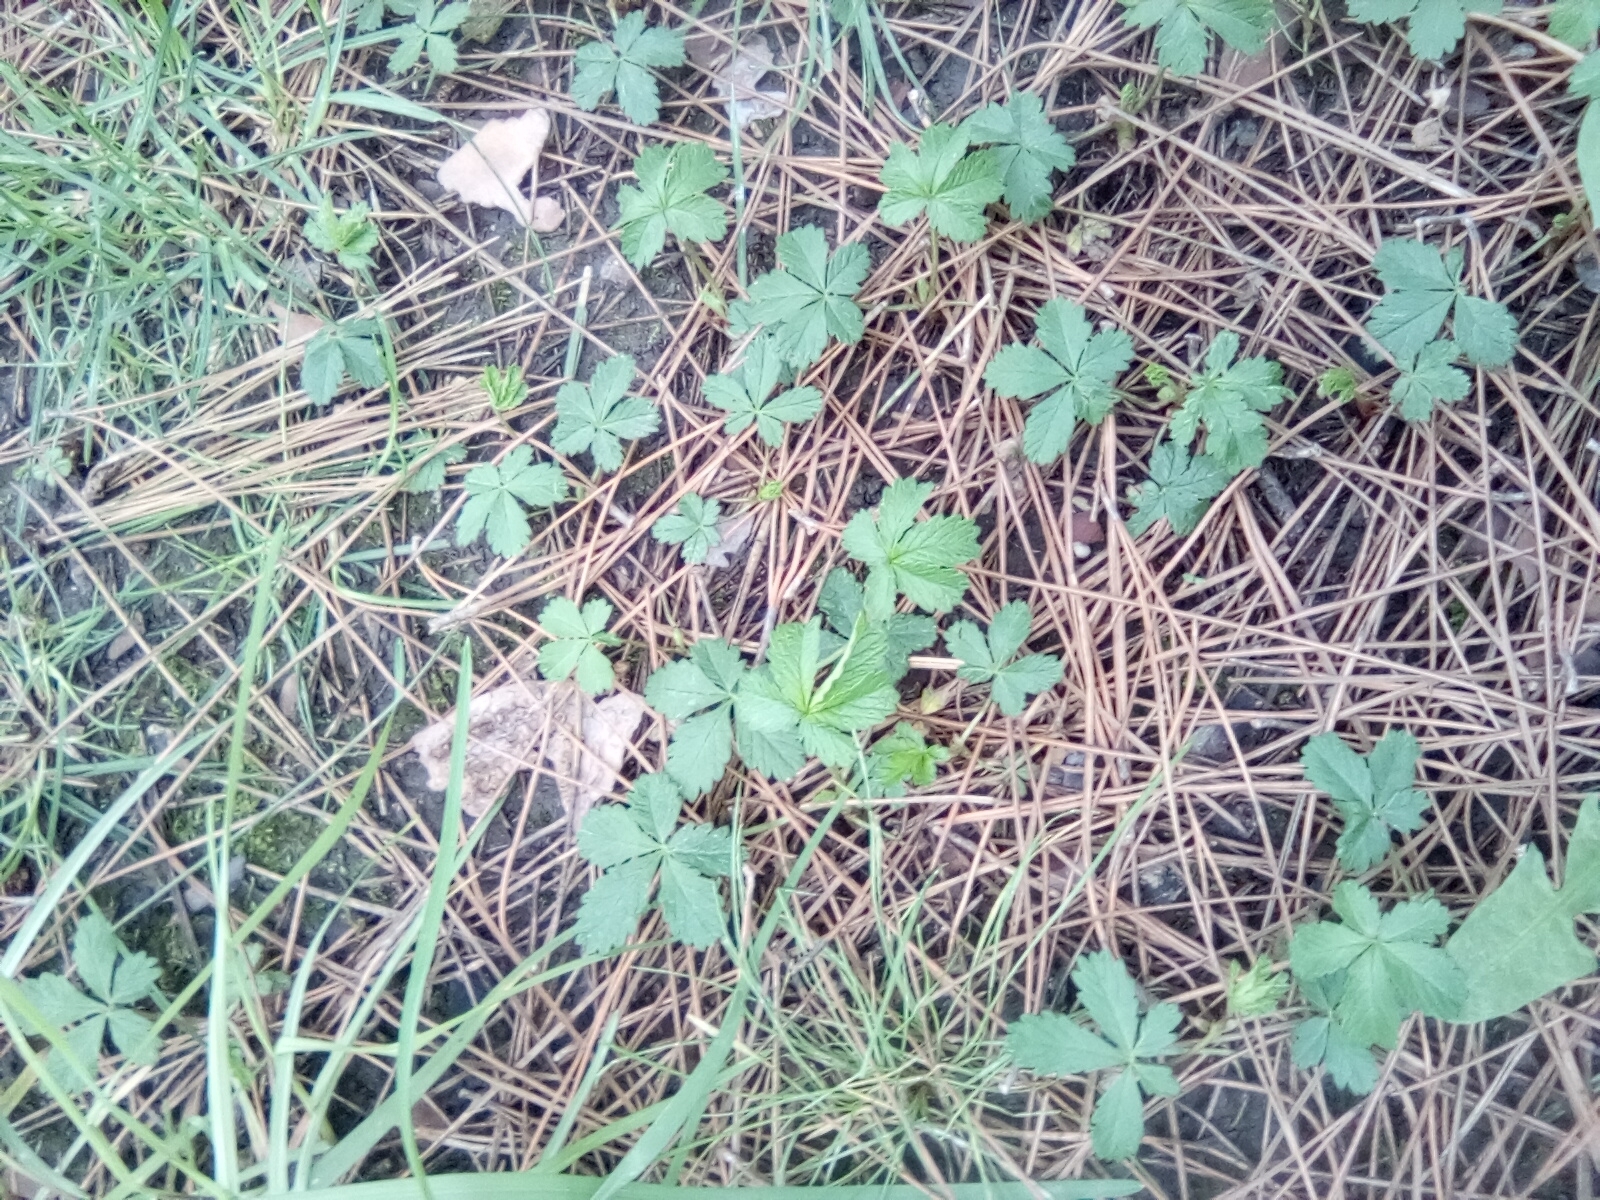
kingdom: Plantae
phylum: Tracheophyta
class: Magnoliopsida
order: Rosales
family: Rosaceae
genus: Potentilla
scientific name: Potentilla reptans
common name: Creeping cinquefoil
